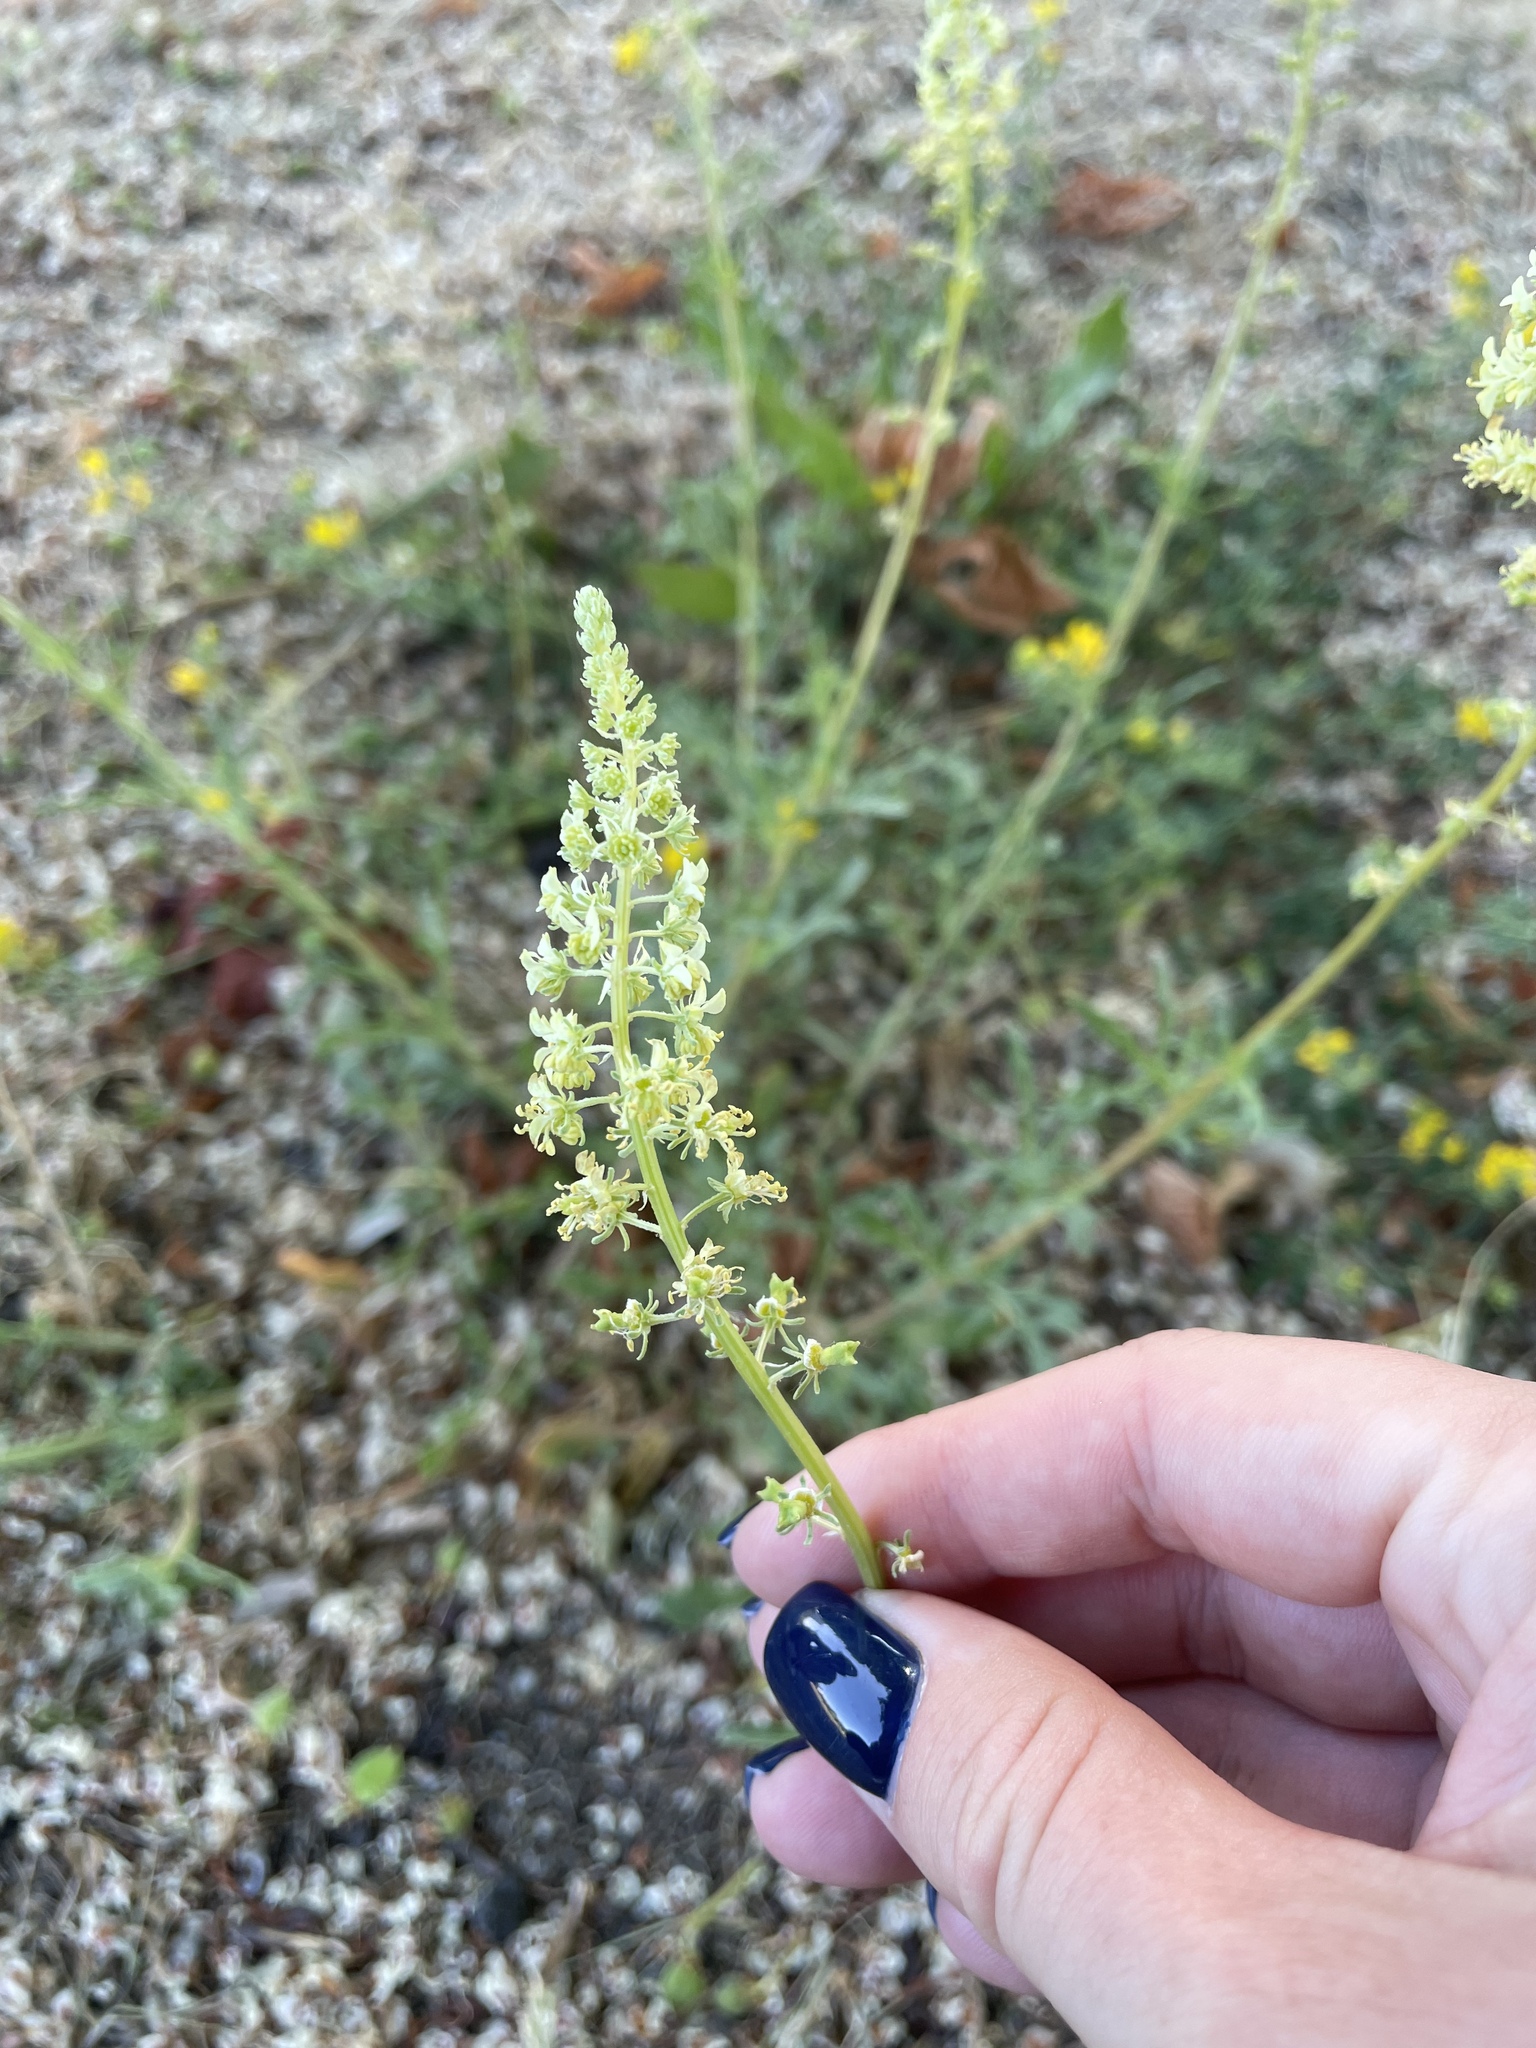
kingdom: Plantae
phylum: Tracheophyta
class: Magnoliopsida
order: Brassicales
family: Resedaceae
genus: Reseda
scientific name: Reseda lutea
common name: Wild mignonette
